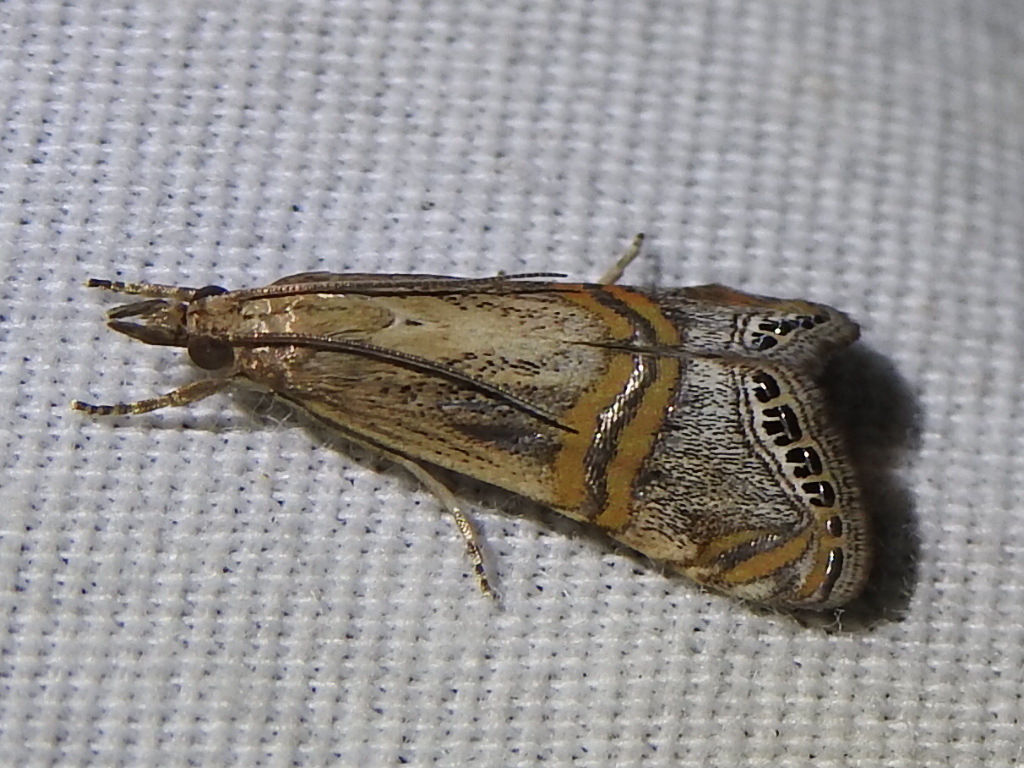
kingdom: Animalia
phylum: Arthropoda
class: Insecta
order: Lepidoptera
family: Crambidae
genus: Euchromius
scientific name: Euchromius ocellea
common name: Necklace veneer moth
